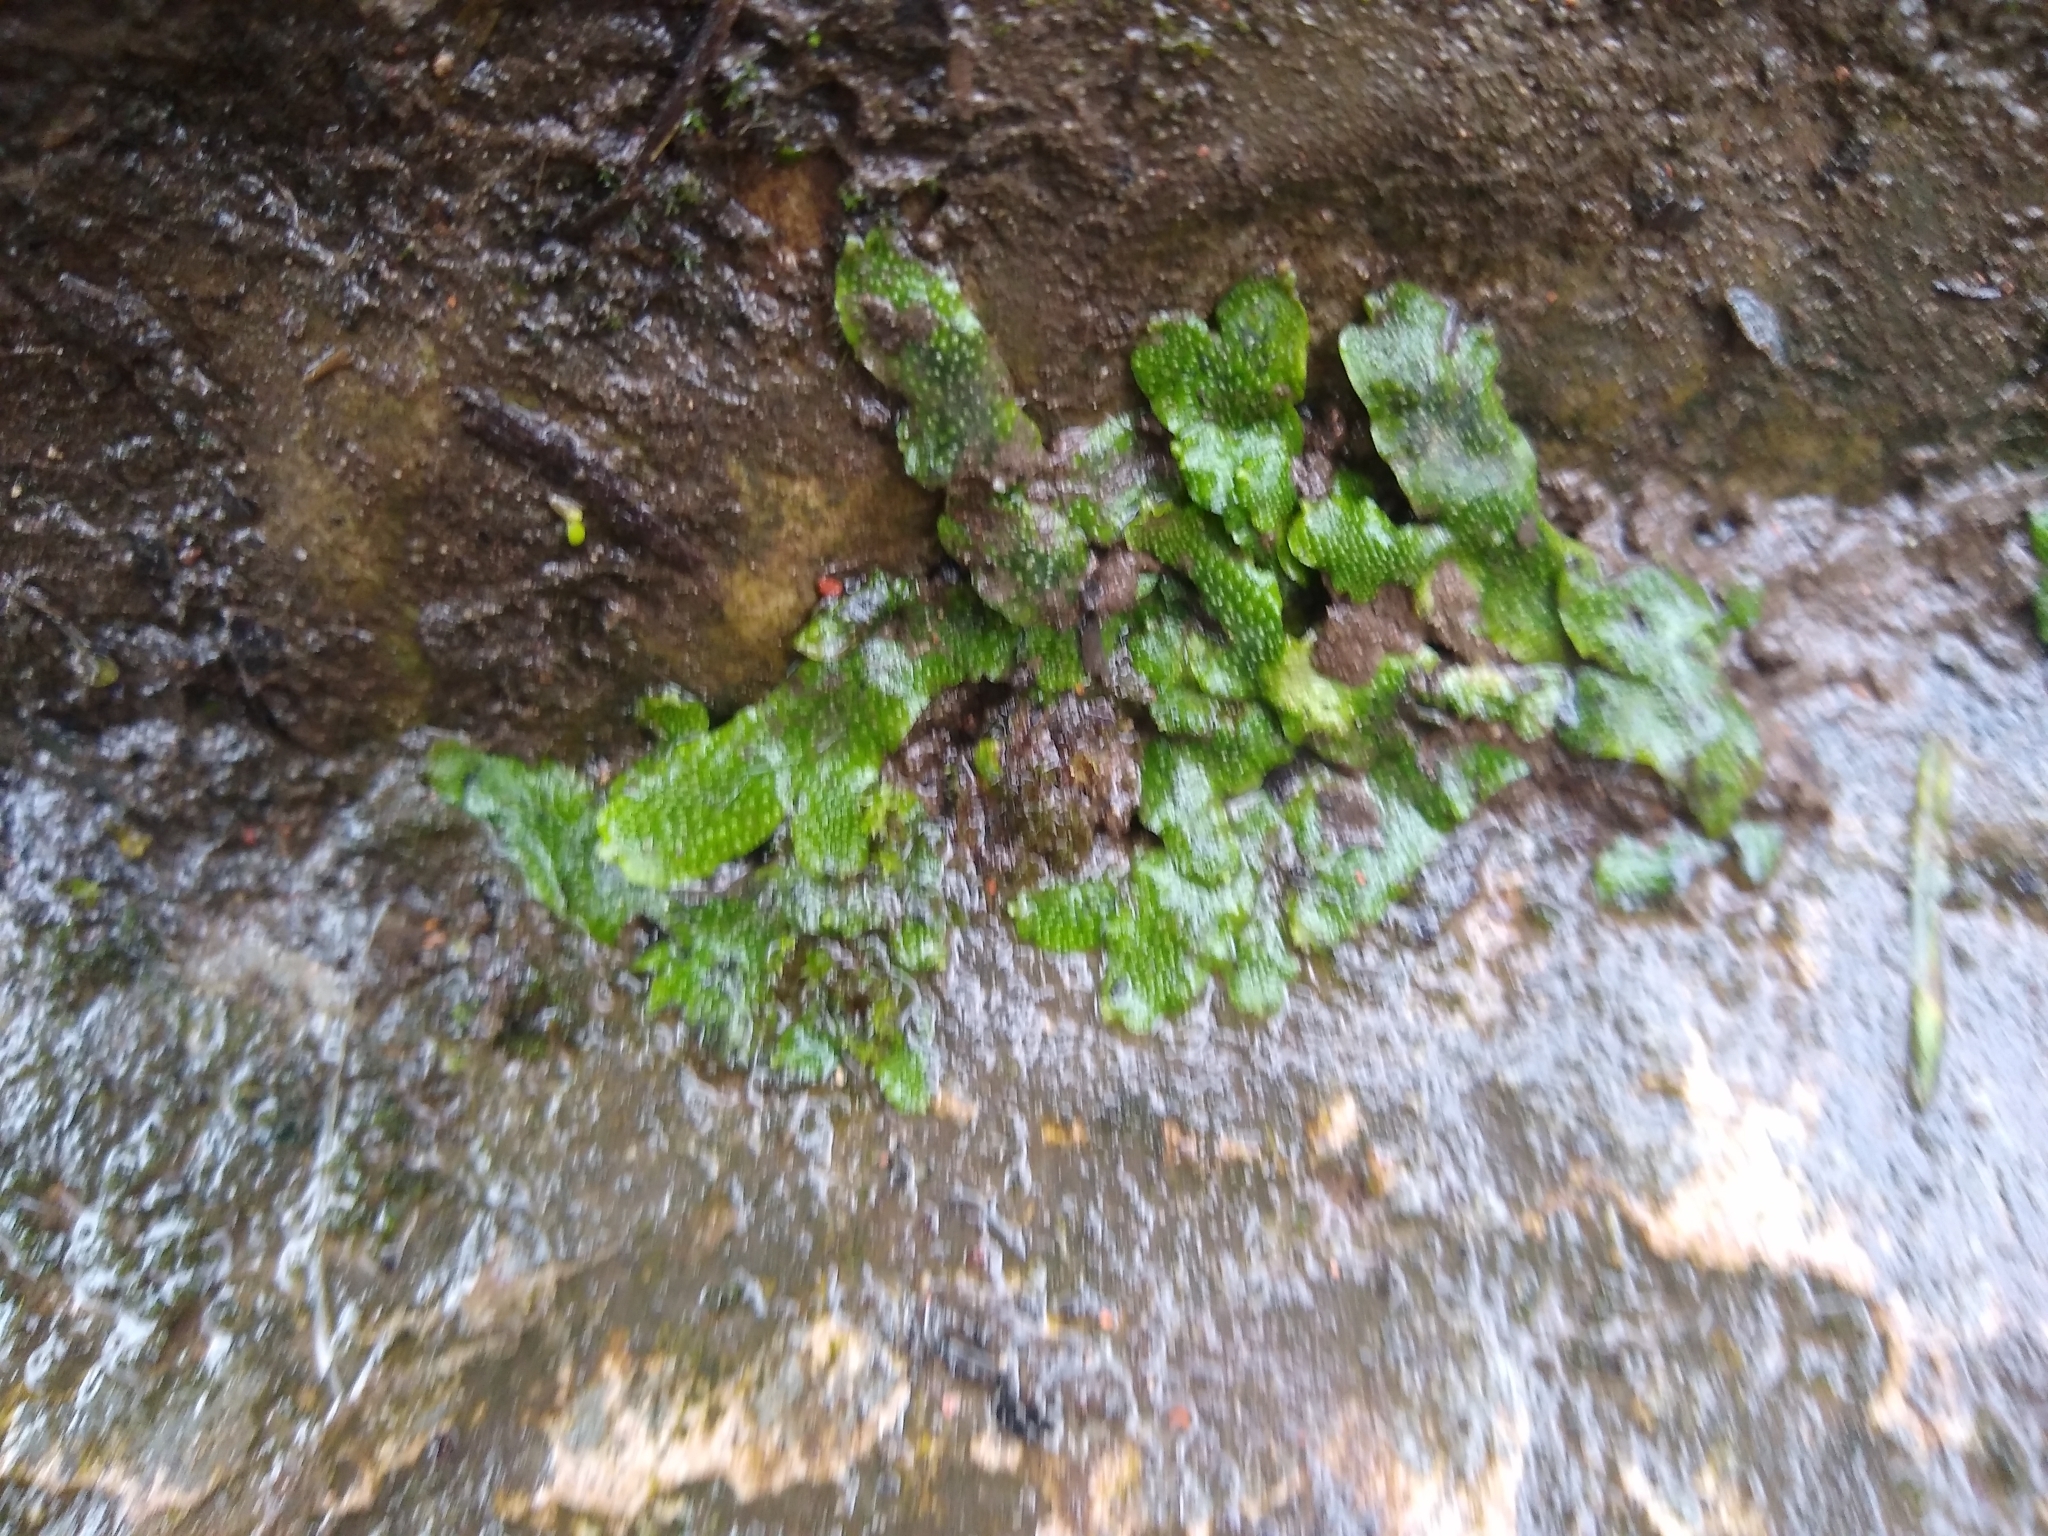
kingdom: Plantae
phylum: Marchantiophyta
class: Marchantiopsida
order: Marchantiales
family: Conocephalaceae
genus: Conocephalum
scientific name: Conocephalum conicum
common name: Great scented liverwort
